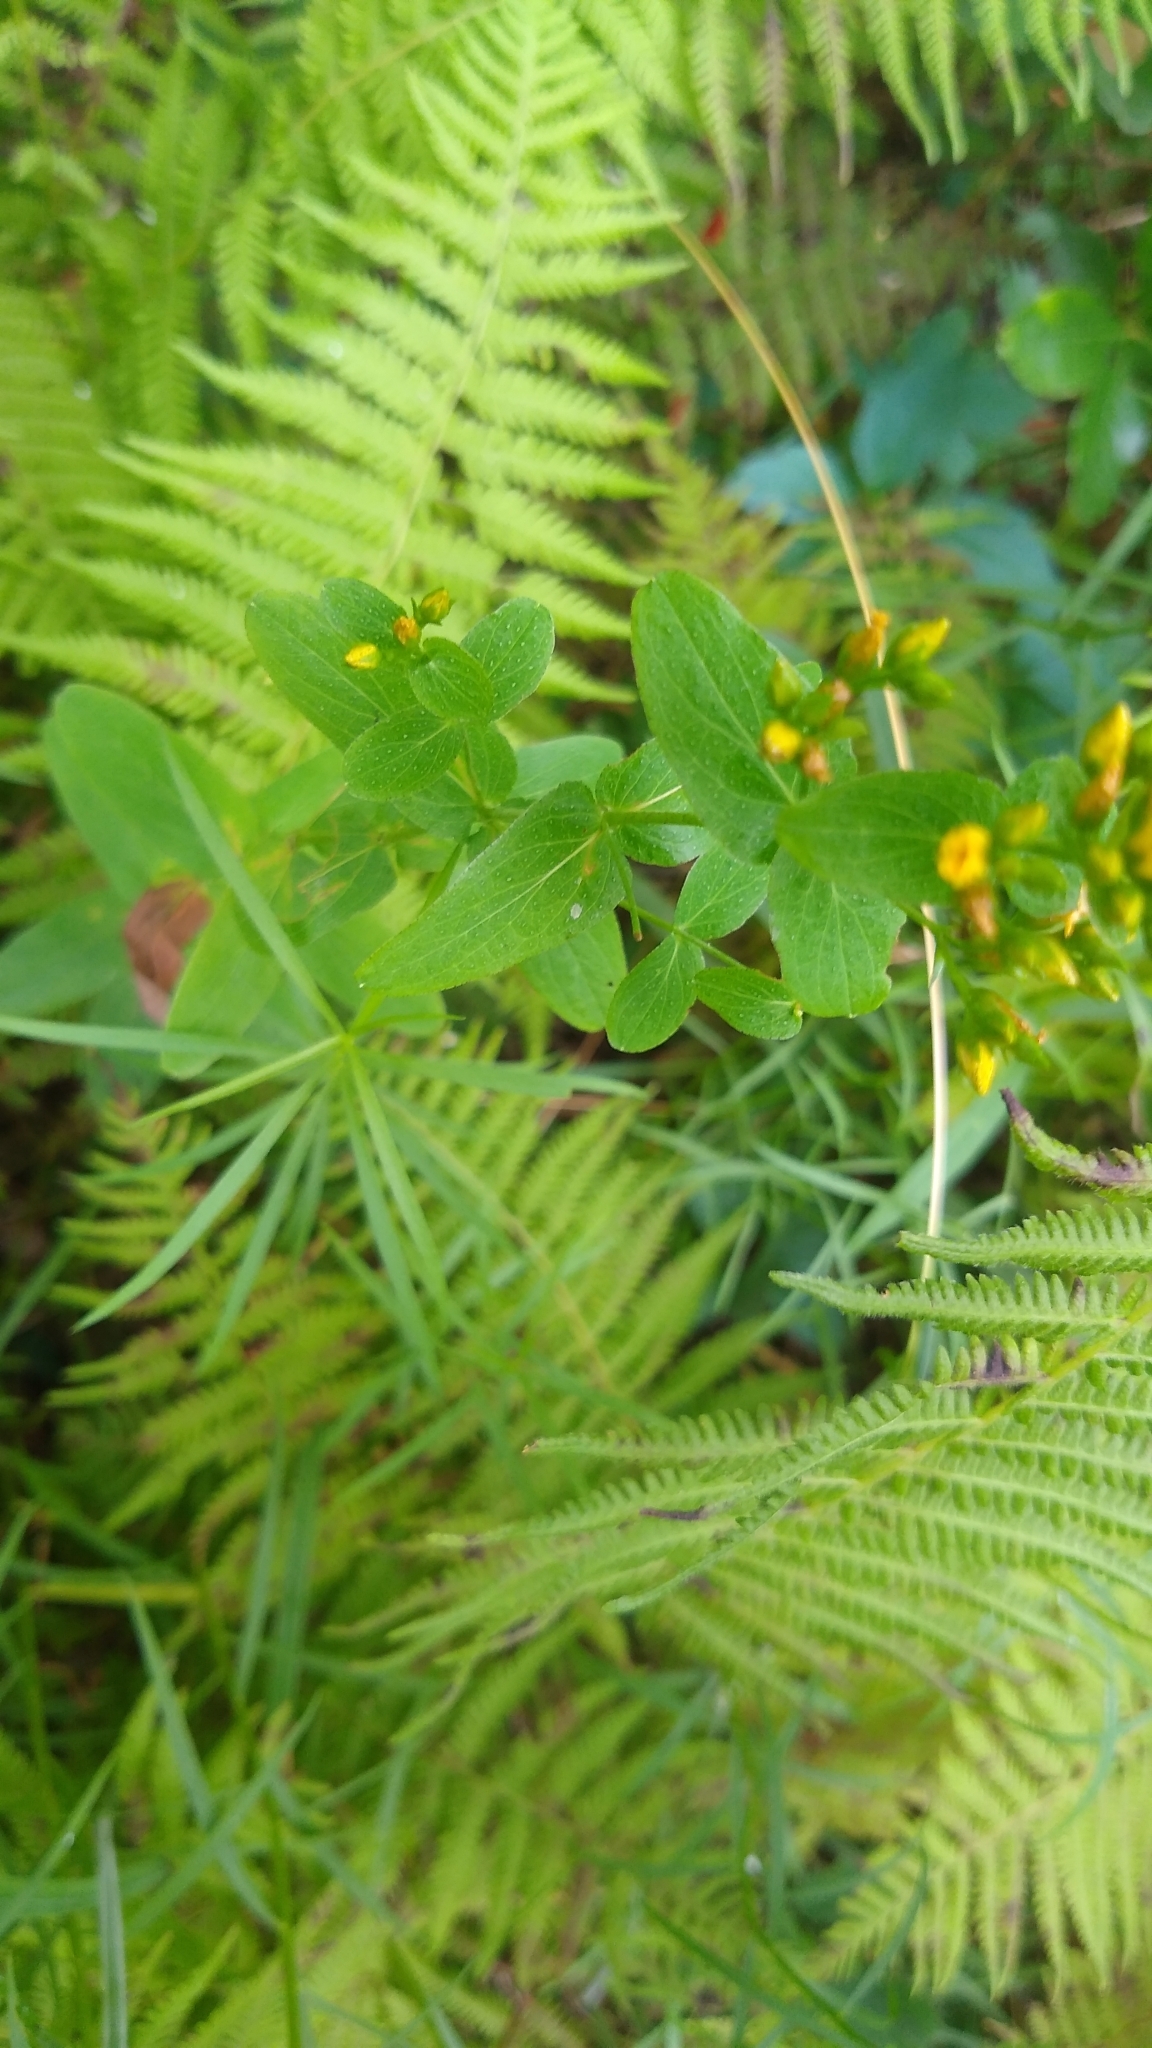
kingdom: Plantae
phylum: Tracheophyta
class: Magnoliopsida
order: Malpighiales
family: Hypericaceae
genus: Hypericum
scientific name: Hypericum perforatum
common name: Common st. johnswort
